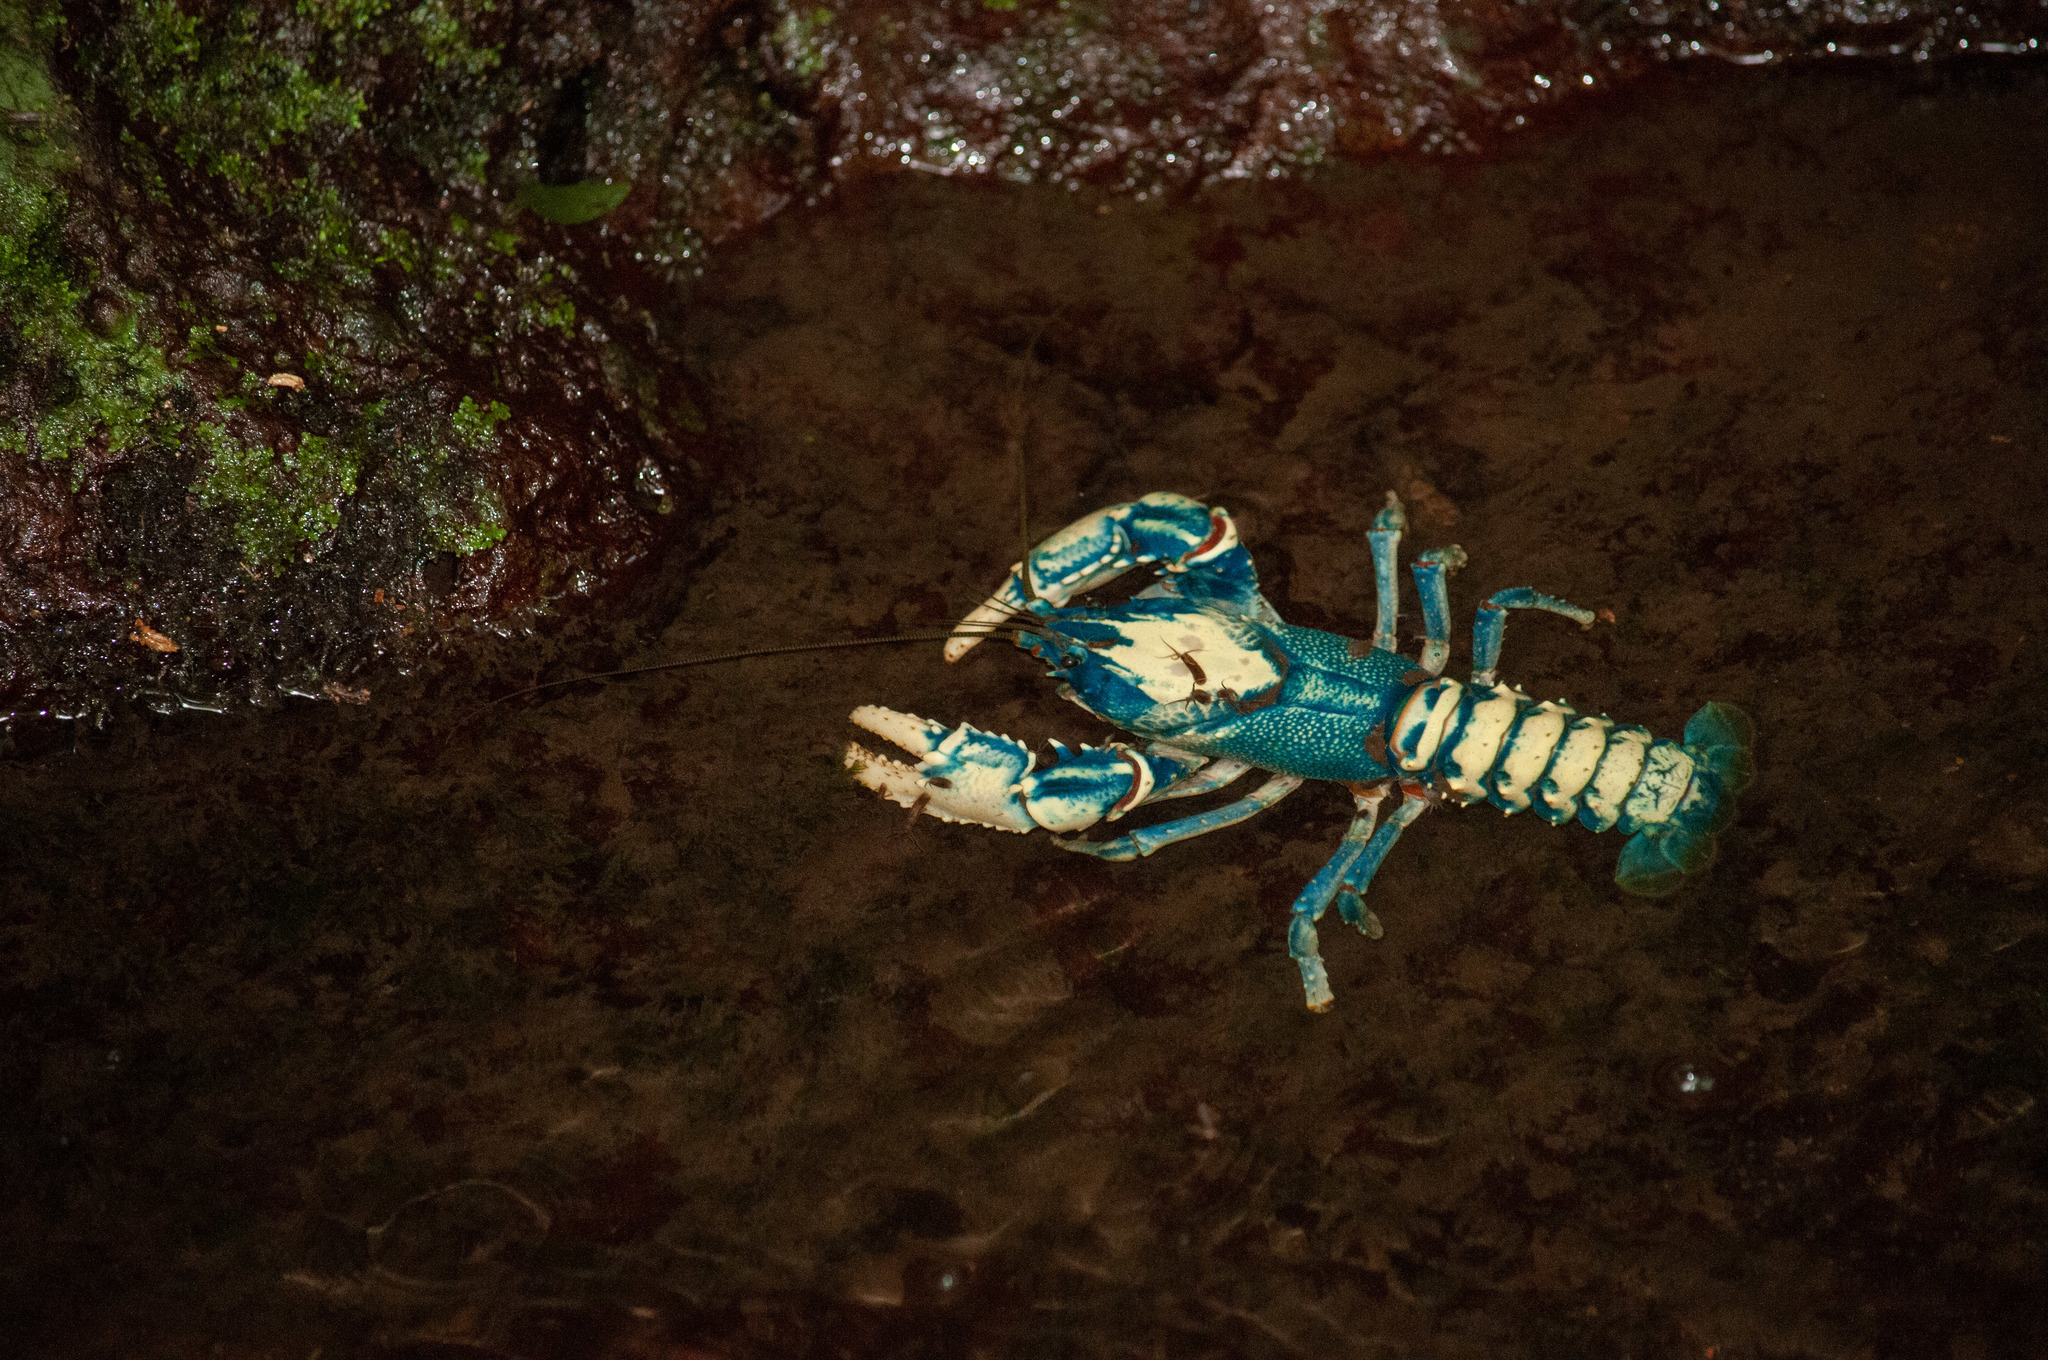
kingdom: Animalia
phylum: Arthropoda
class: Malacostraca
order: Decapoda
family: Parastacidae
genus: Euastacus
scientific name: Euastacus sulcatus
